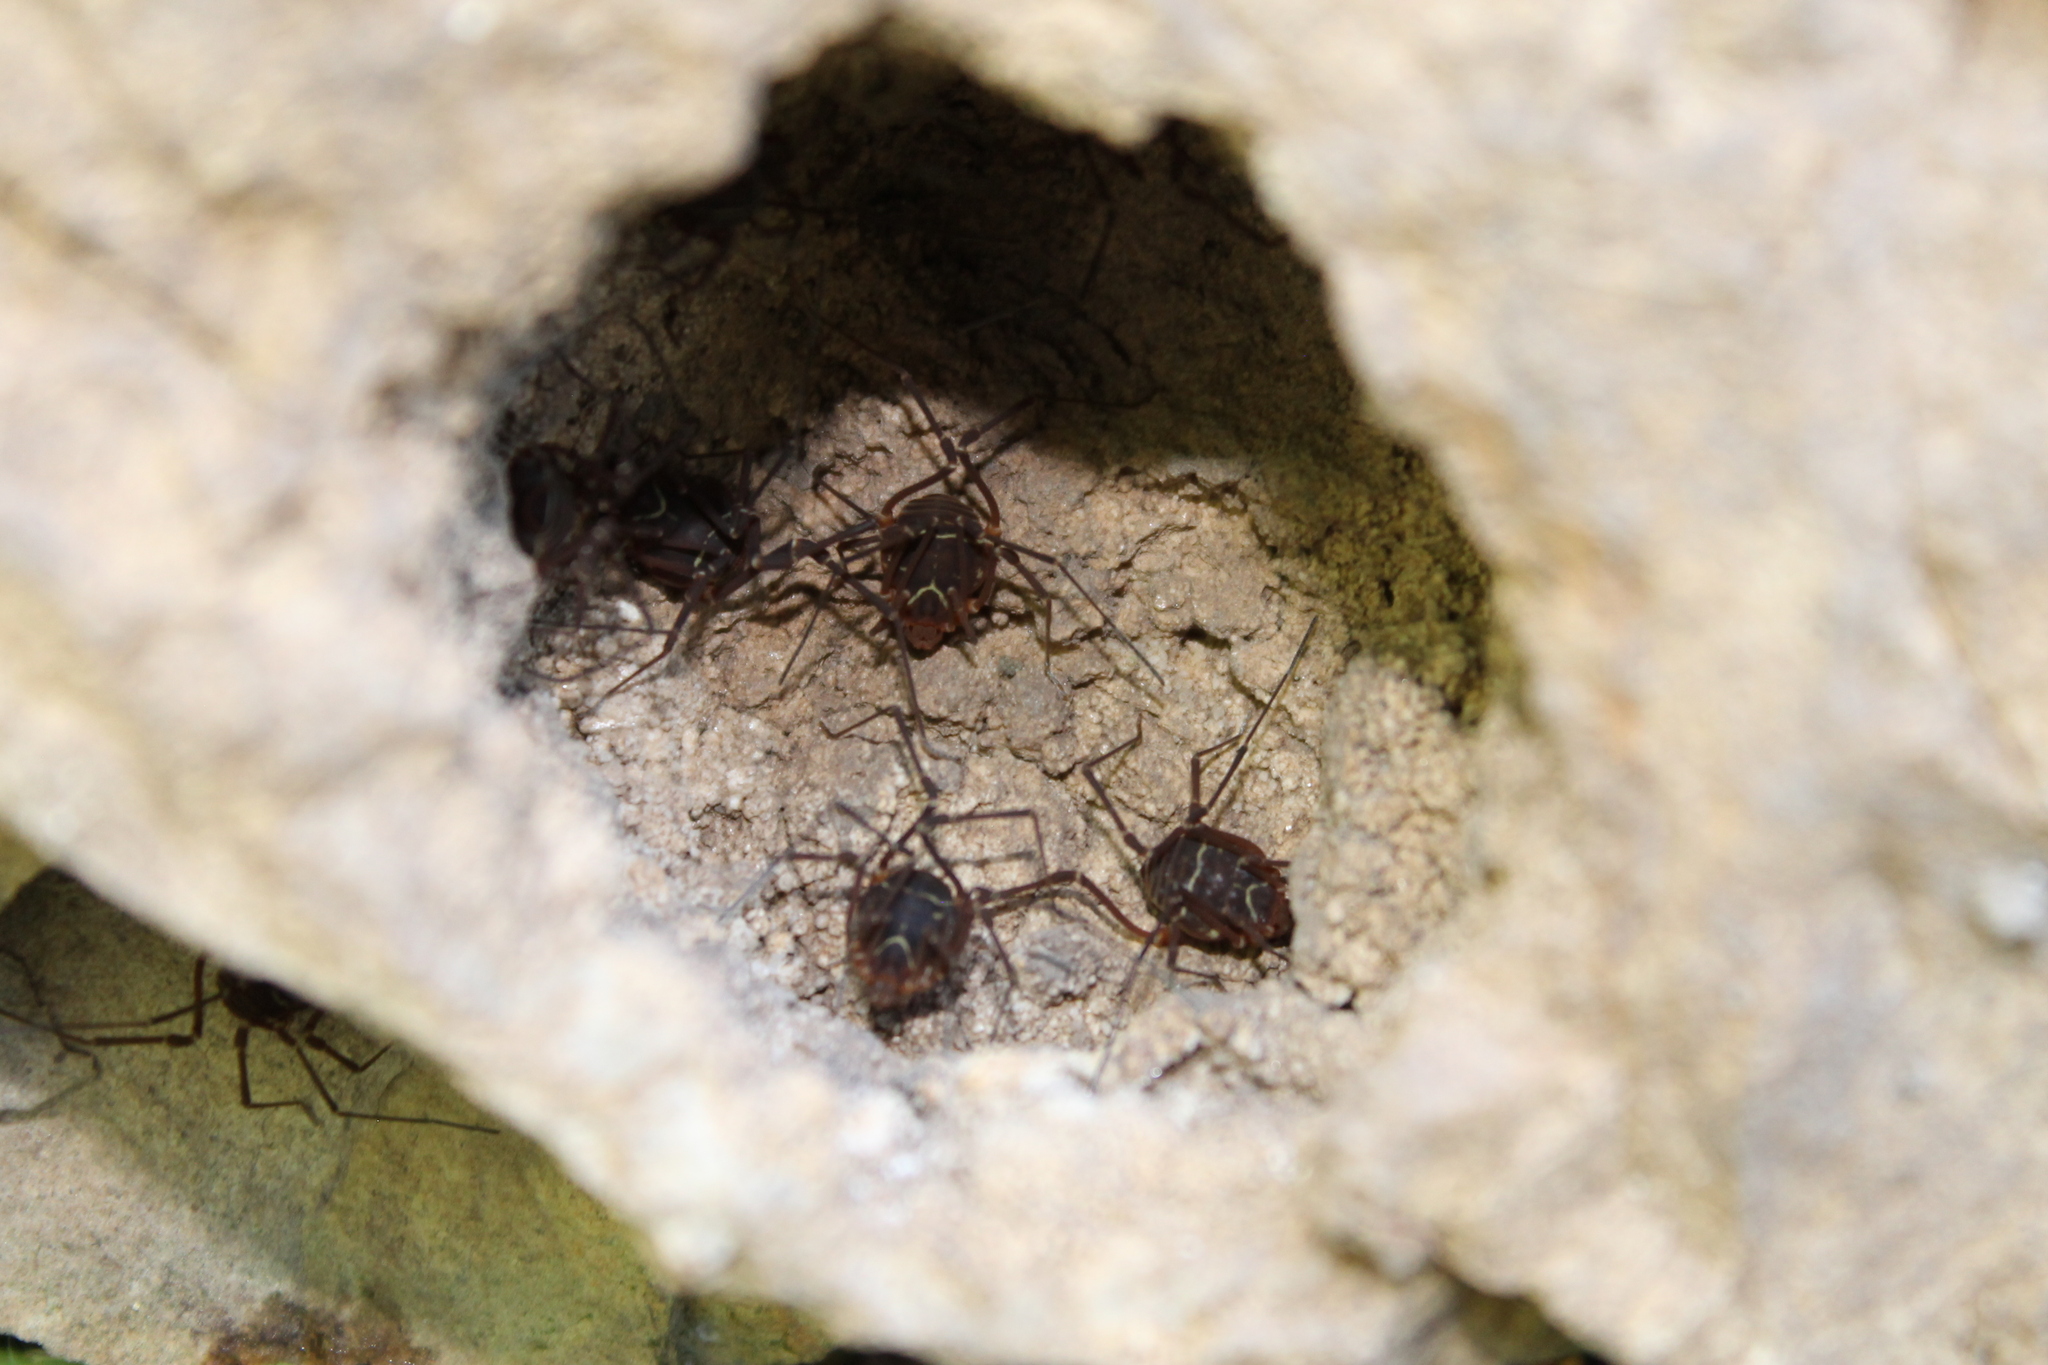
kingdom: Animalia
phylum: Arthropoda
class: Arachnida
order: Opiliones
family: Cosmetidae
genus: Libitioides
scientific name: Libitioides sayi
